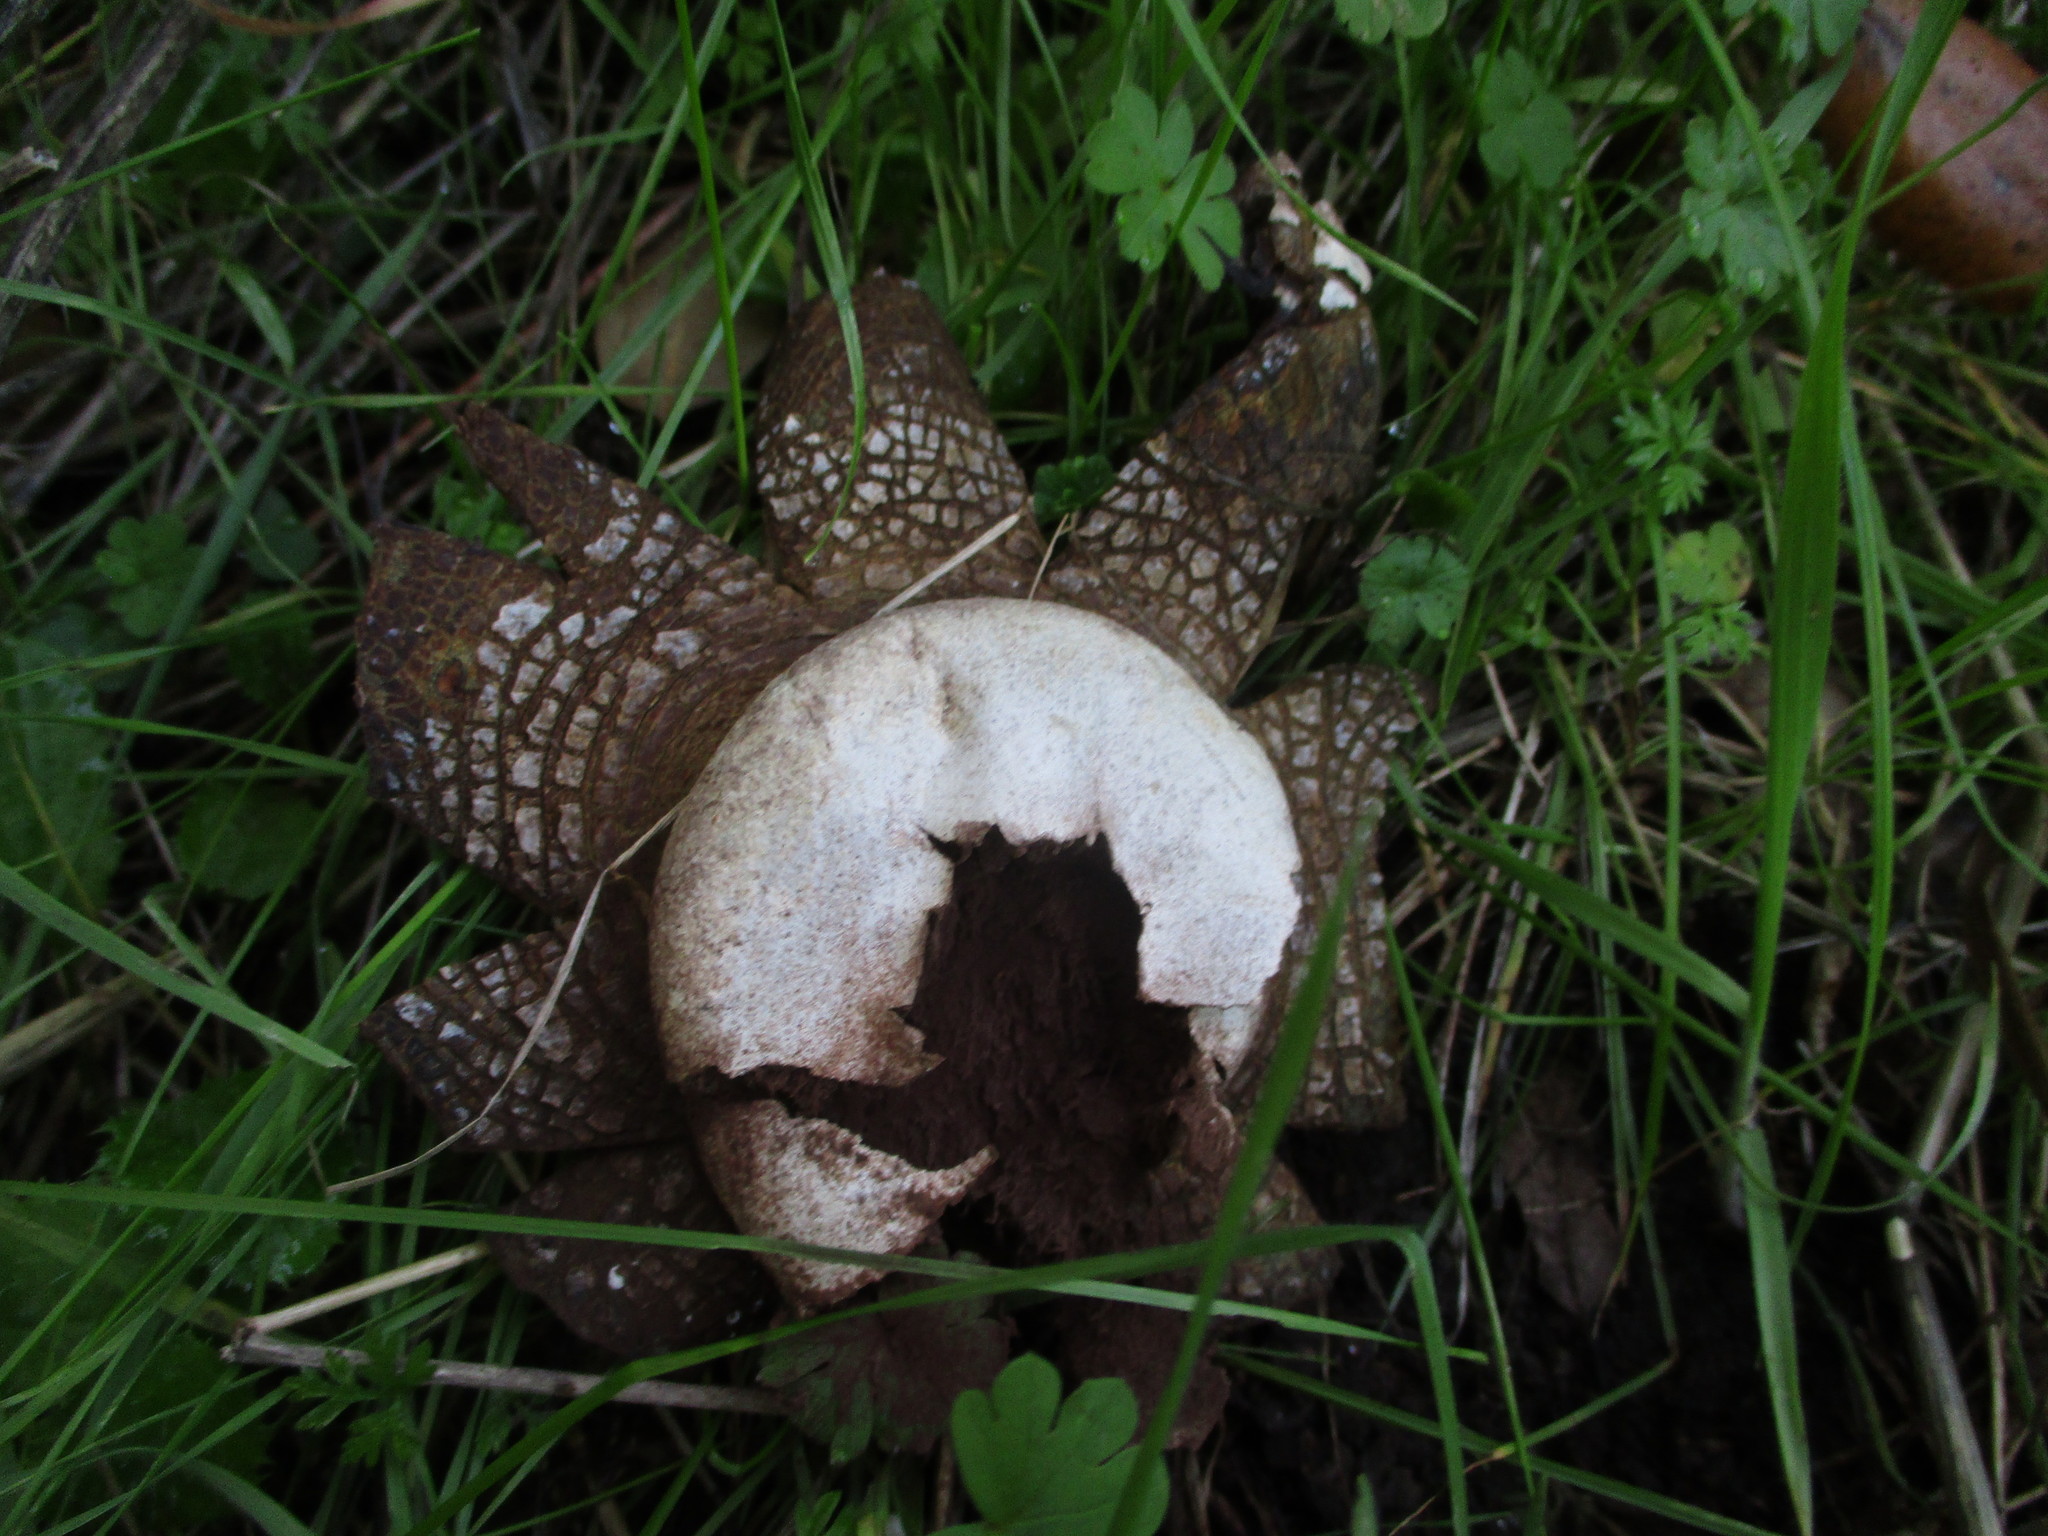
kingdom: Fungi
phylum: Basidiomycota
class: Agaricomycetes
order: Boletales
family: Diplocystidiaceae
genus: Astraeus
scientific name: Astraeus hygrometricus
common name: Barometer earthstar
